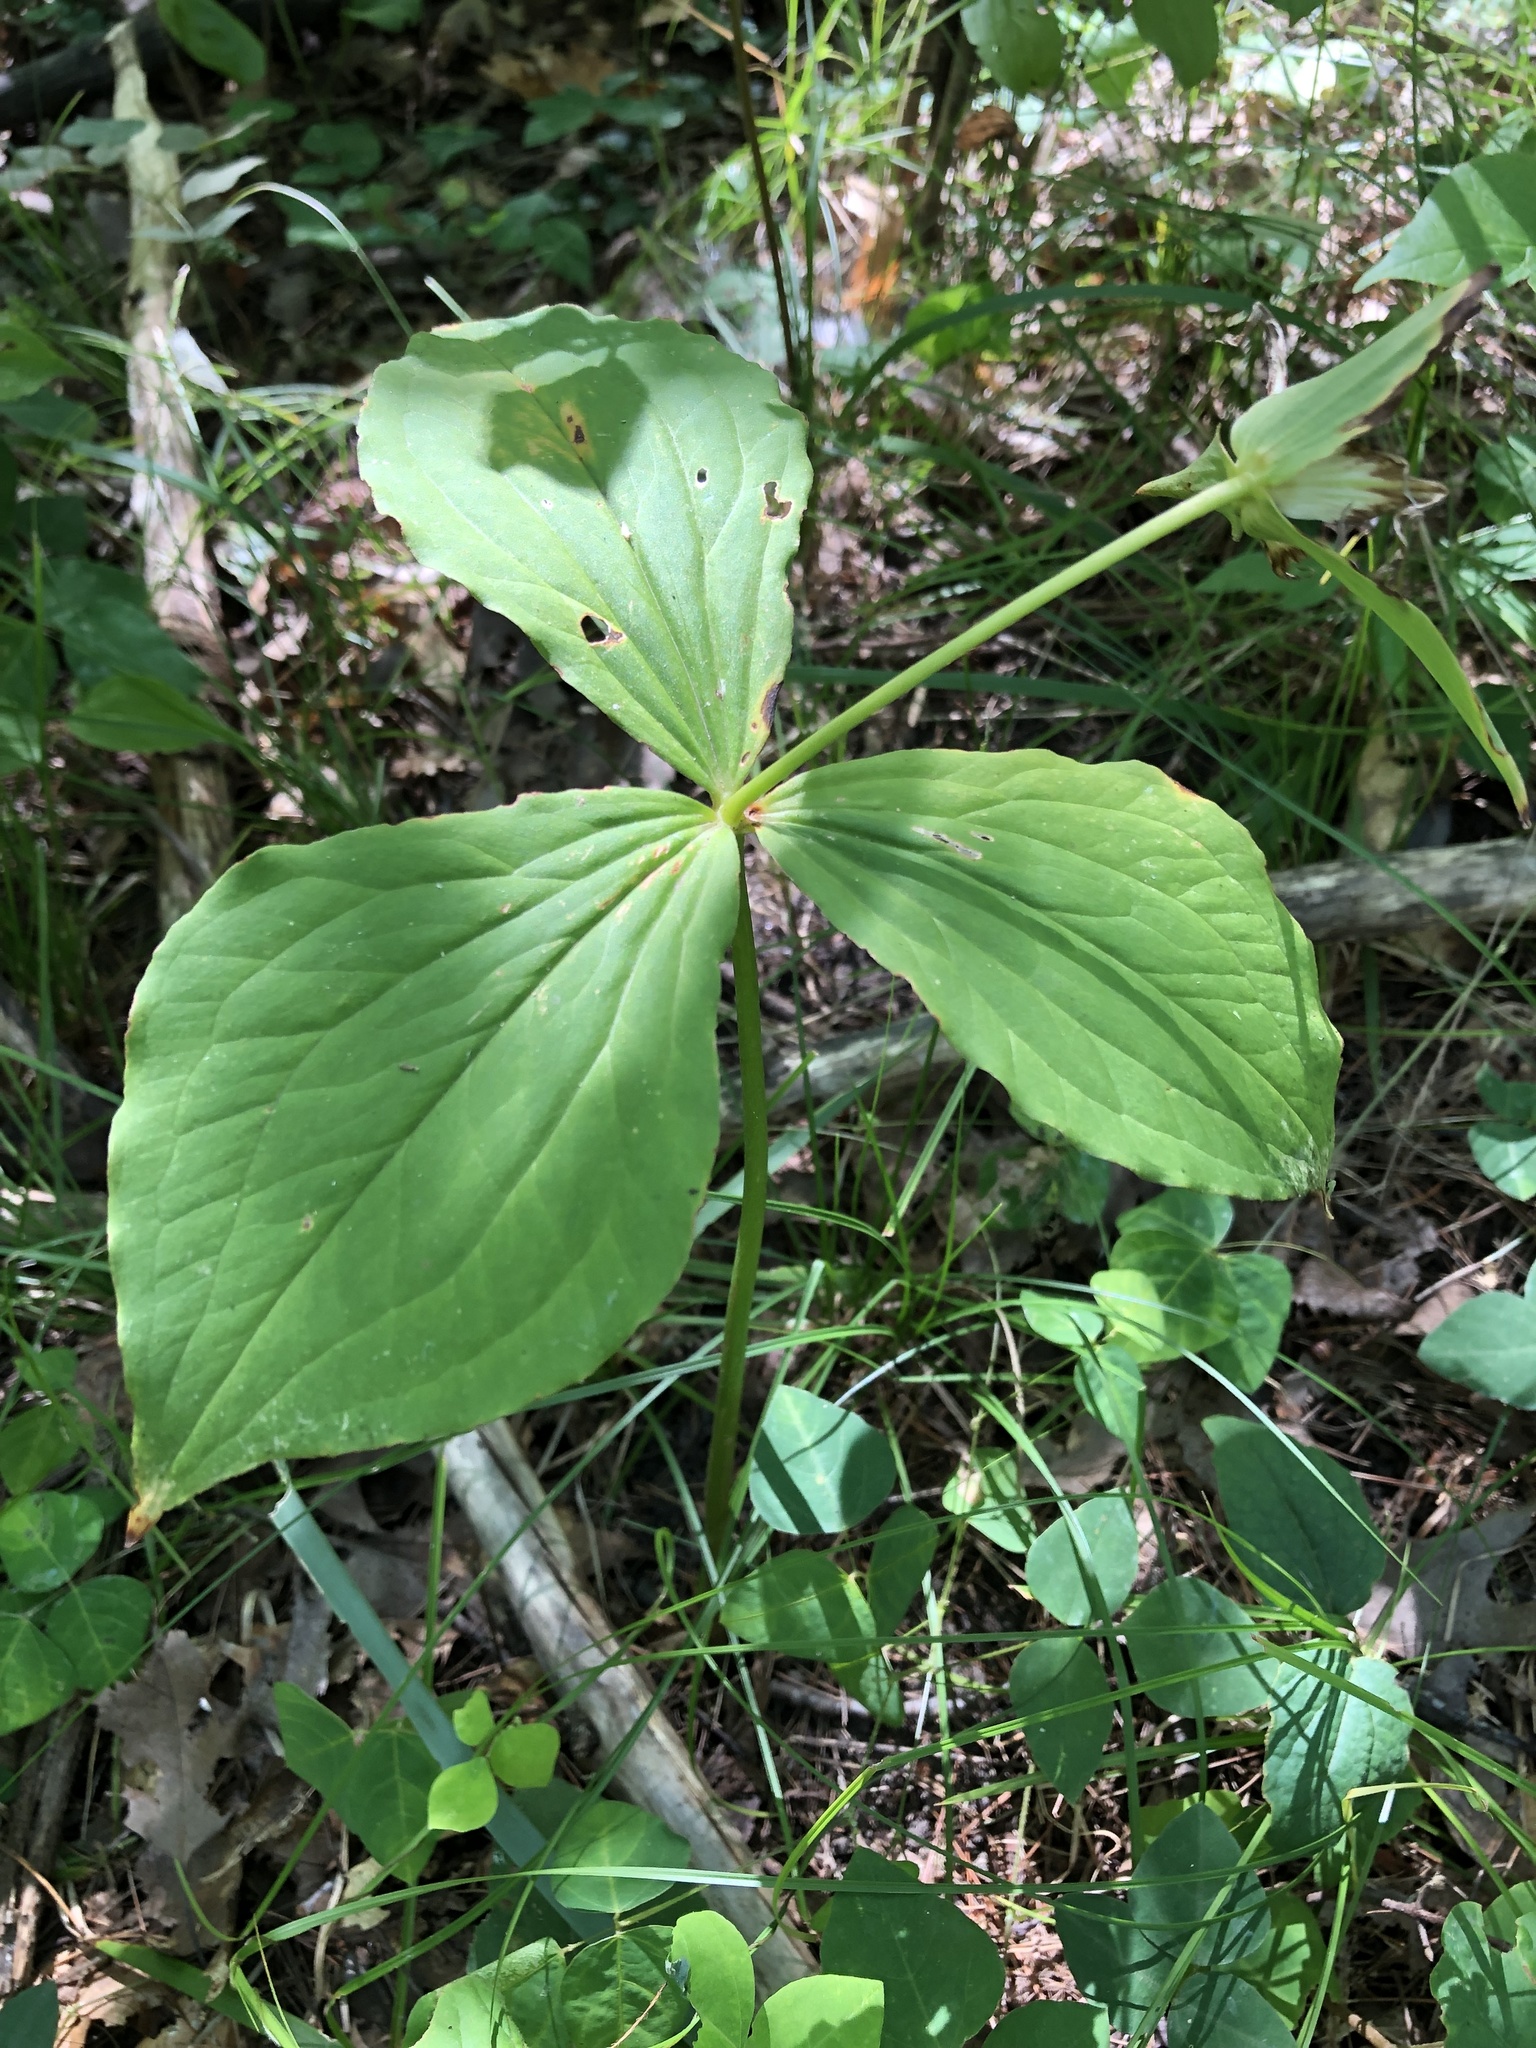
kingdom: Plantae
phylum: Tracheophyta
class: Liliopsida
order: Liliales
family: Melanthiaceae
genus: Trillium
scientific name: Trillium grandiflorum
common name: Great white trillium
